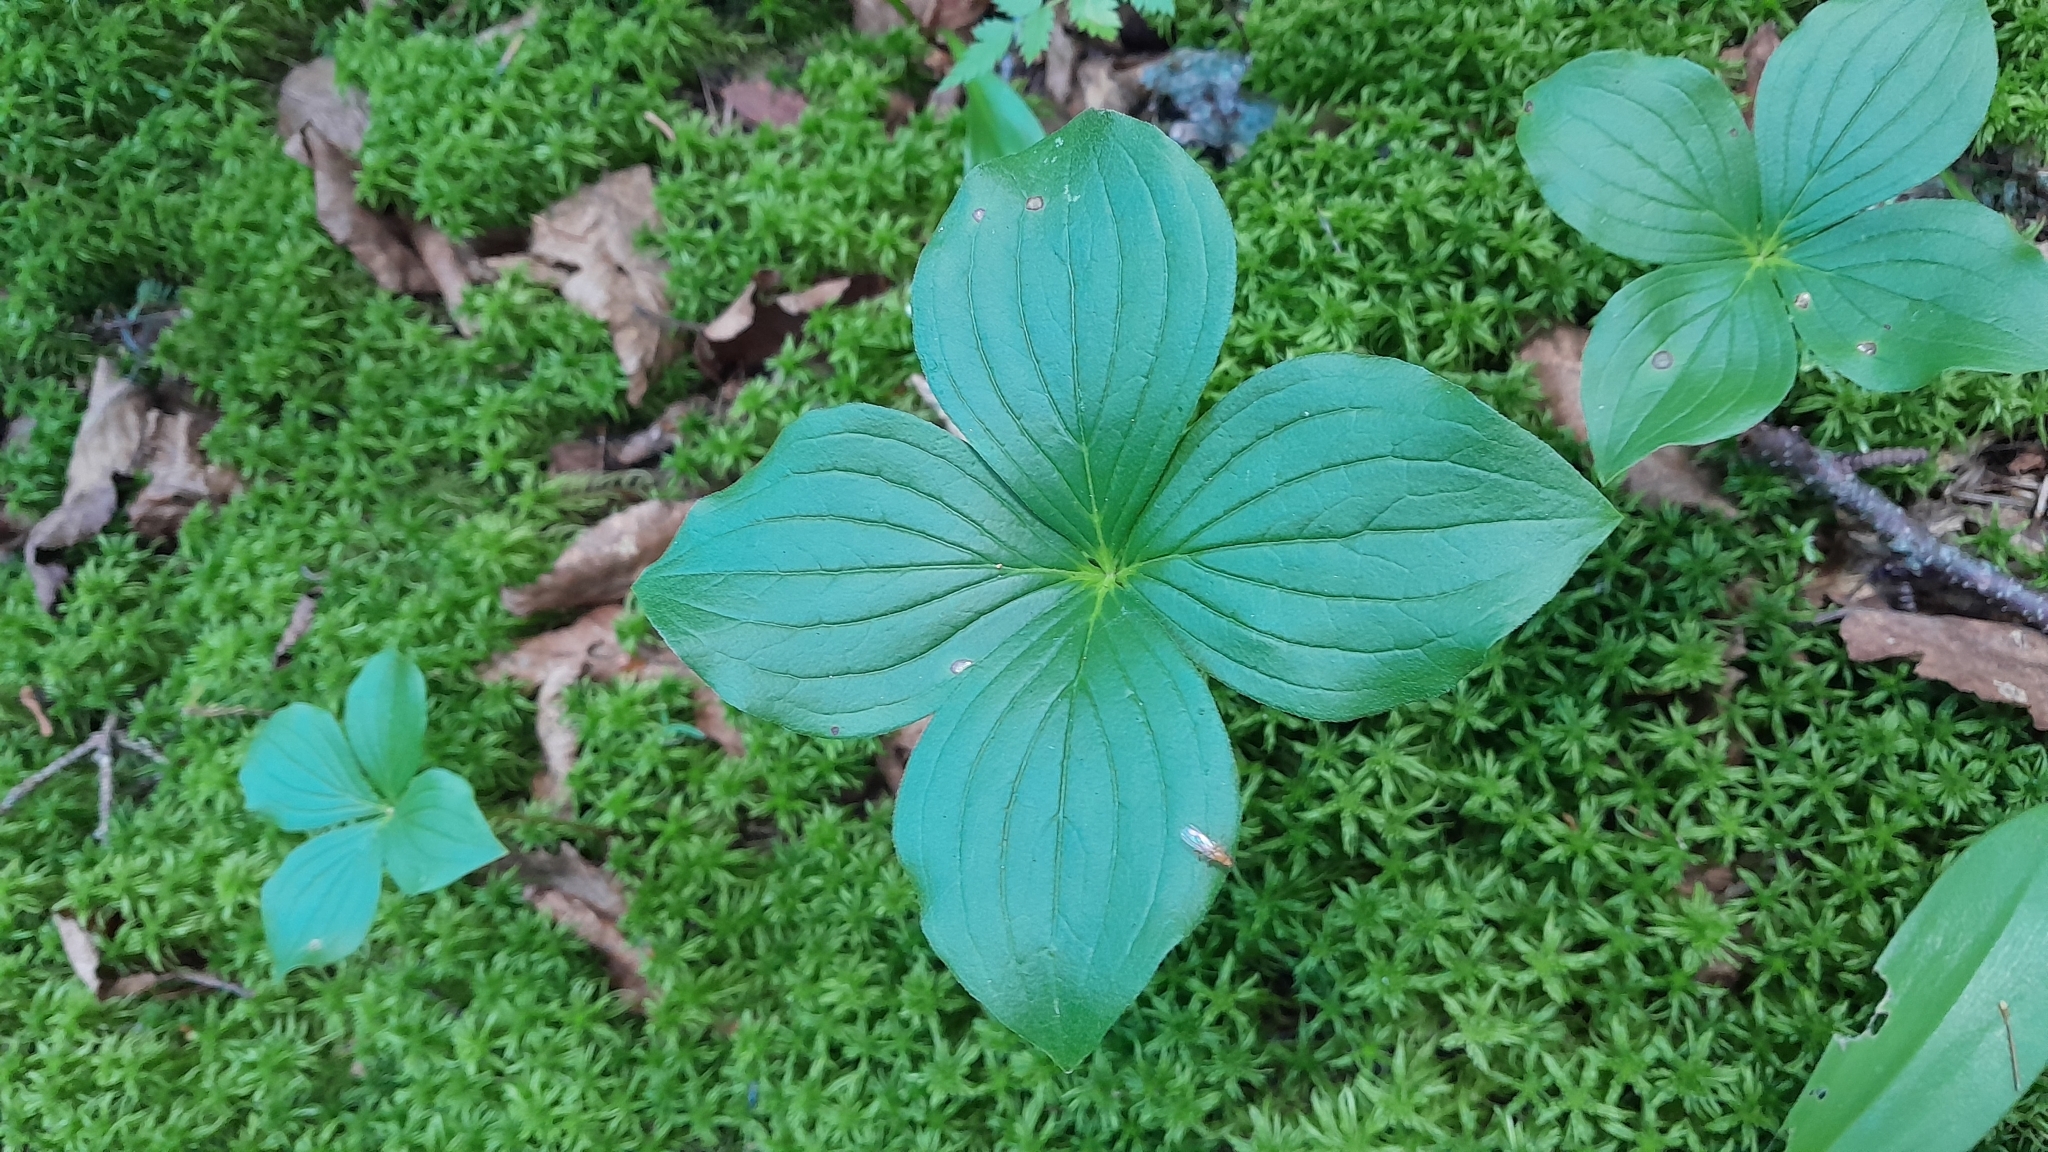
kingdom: Plantae
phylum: Tracheophyta
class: Magnoliopsida
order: Cornales
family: Cornaceae
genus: Cornus
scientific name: Cornus canadensis
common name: Creeping dogwood
